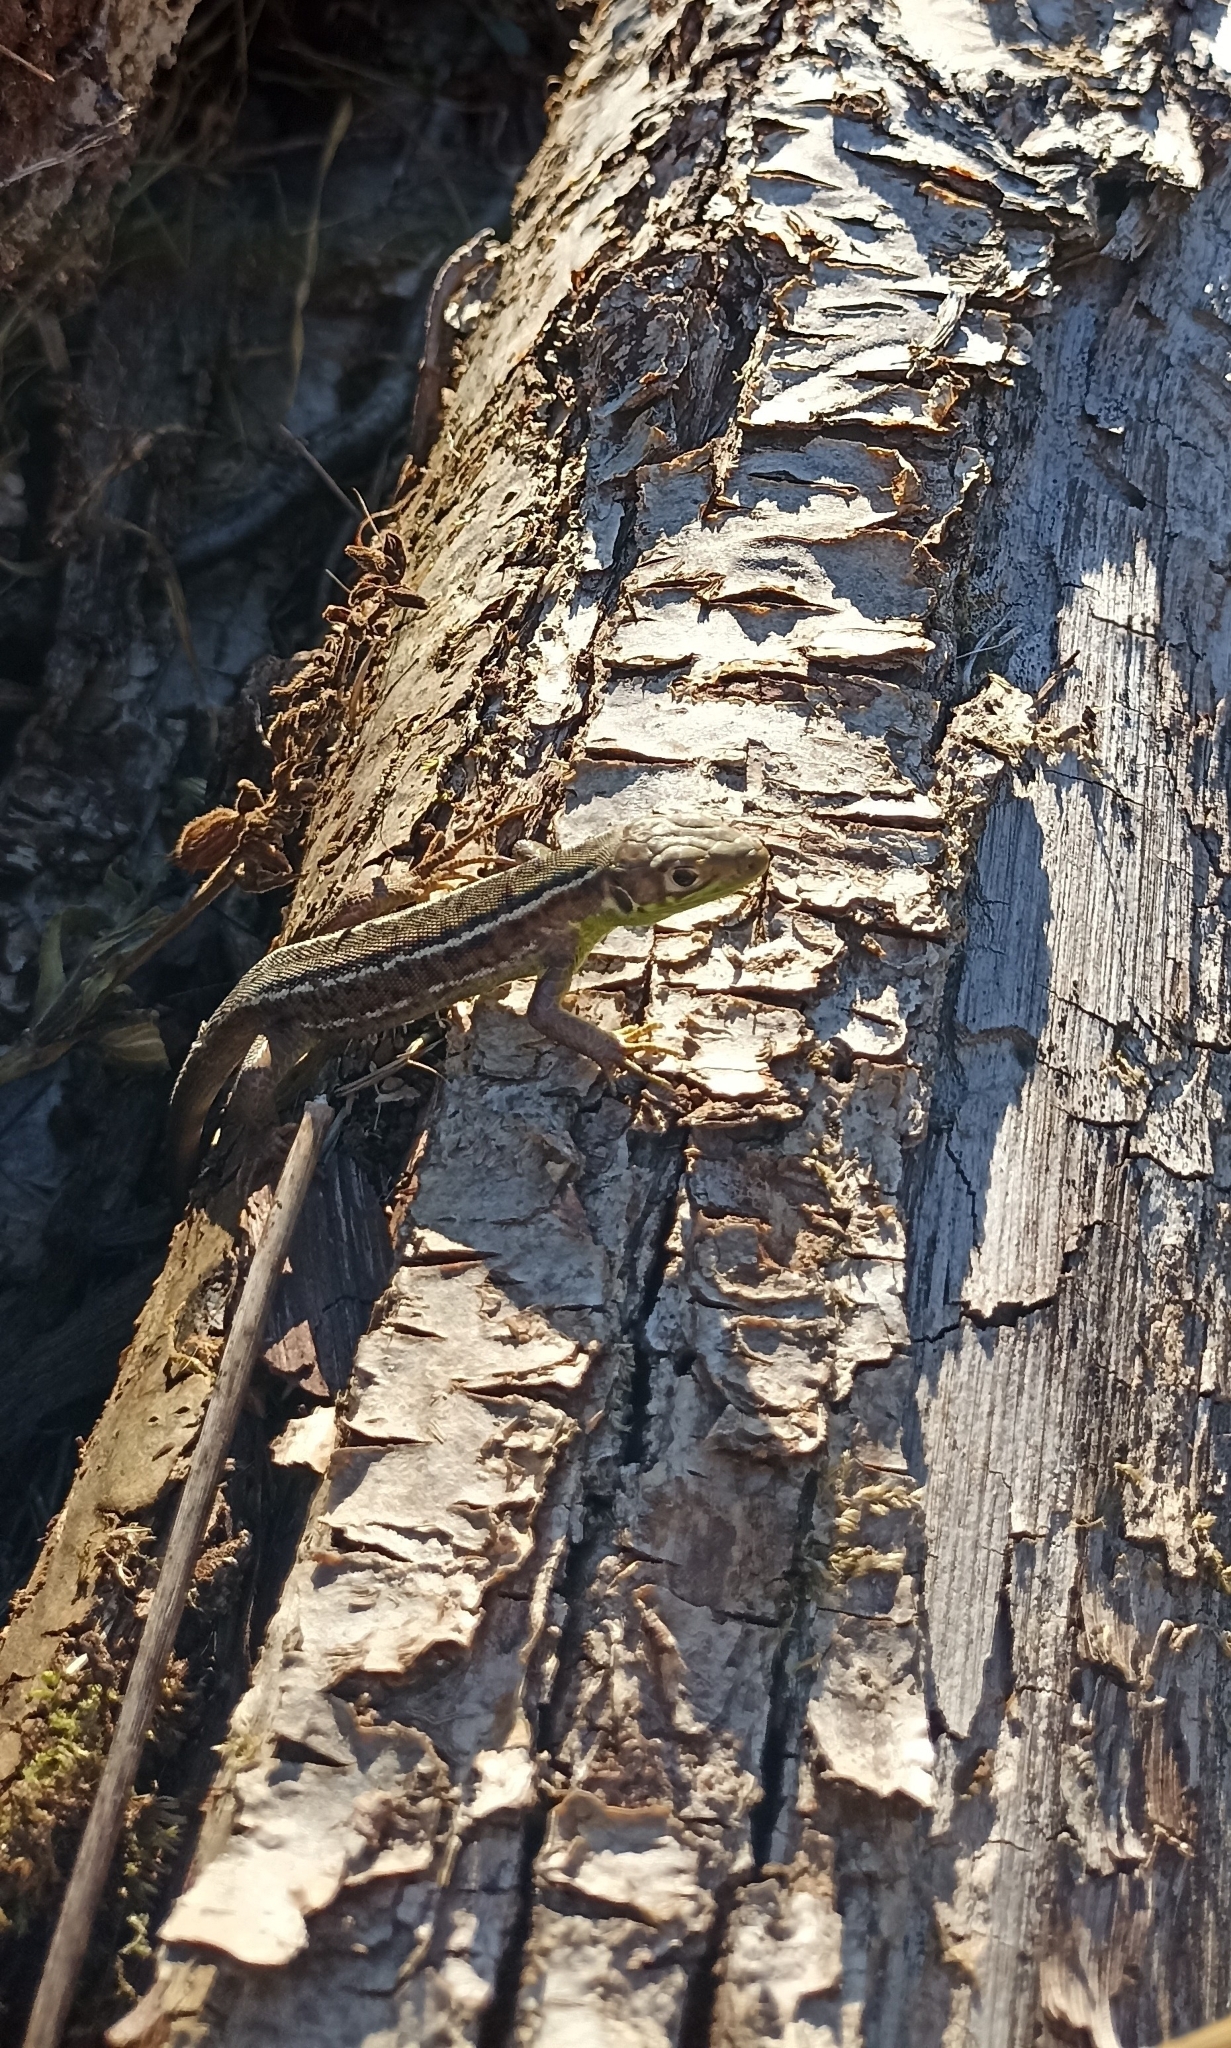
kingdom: Animalia
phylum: Chordata
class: Squamata
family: Lacertidae
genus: Lacerta
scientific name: Lacerta bilineata
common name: Western green lizard
